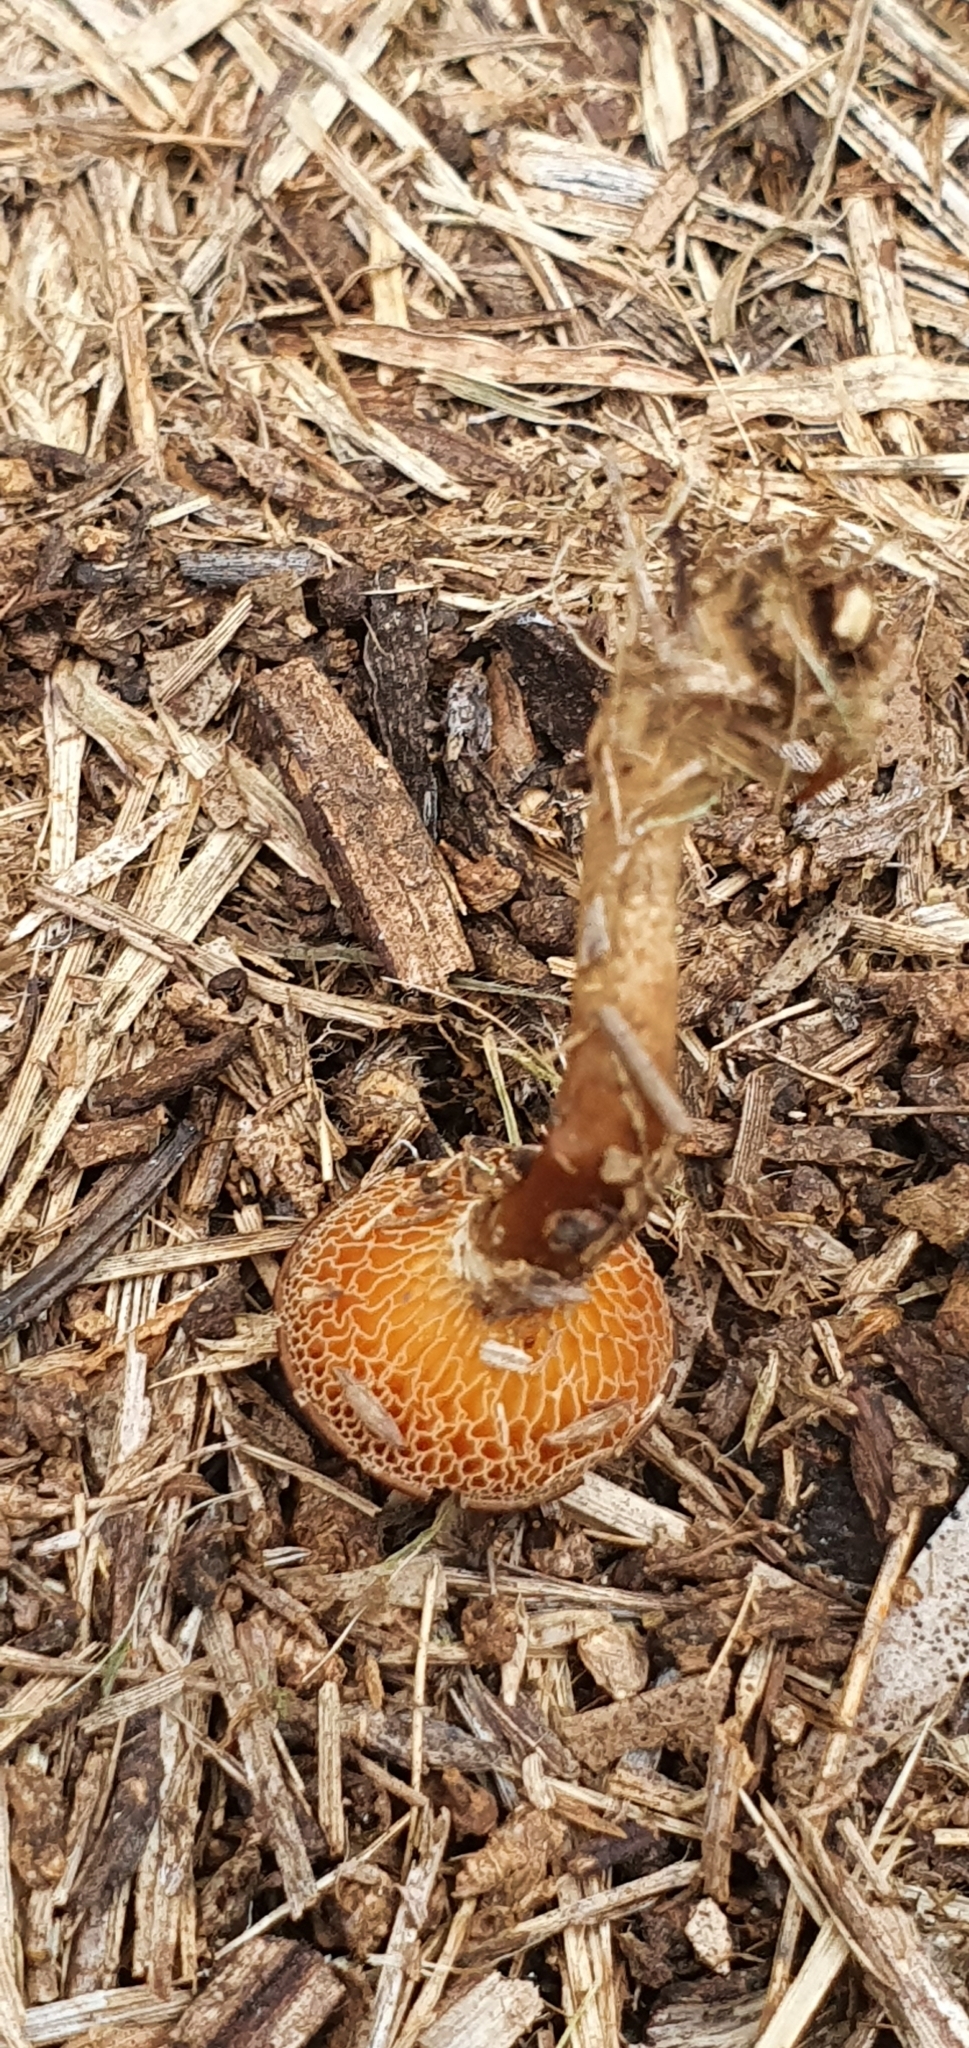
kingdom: Fungi
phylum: Basidiomycota
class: Agaricomycetes
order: Polyporales
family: Polyporaceae
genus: Lentinus
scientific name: Lentinus arcularius
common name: Spring polypore
